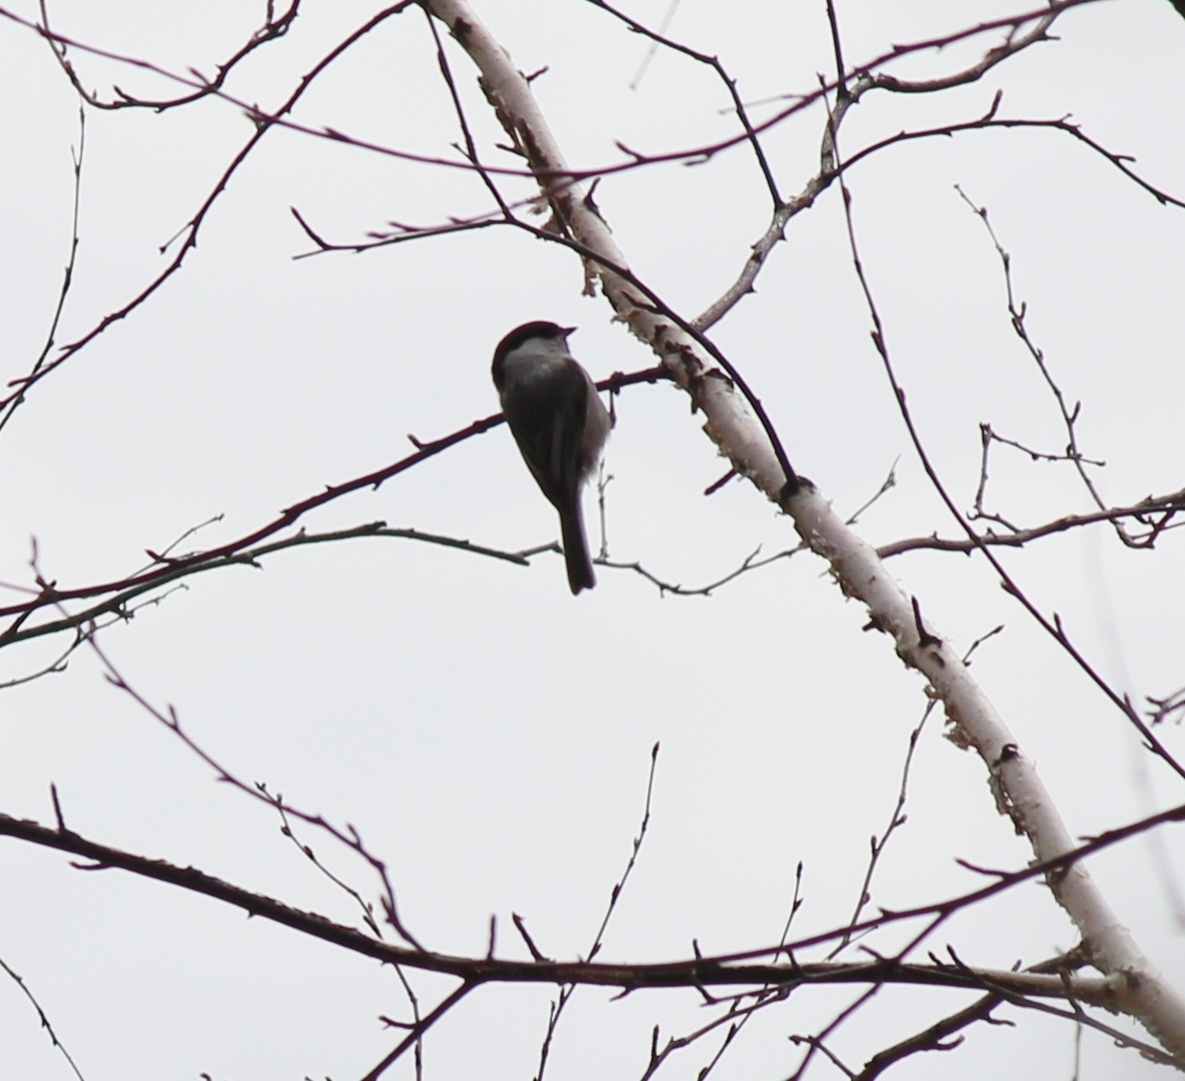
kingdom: Animalia
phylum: Chordata
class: Aves
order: Passeriformes
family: Paridae
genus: Poecile
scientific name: Poecile montanus
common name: Willow tit
